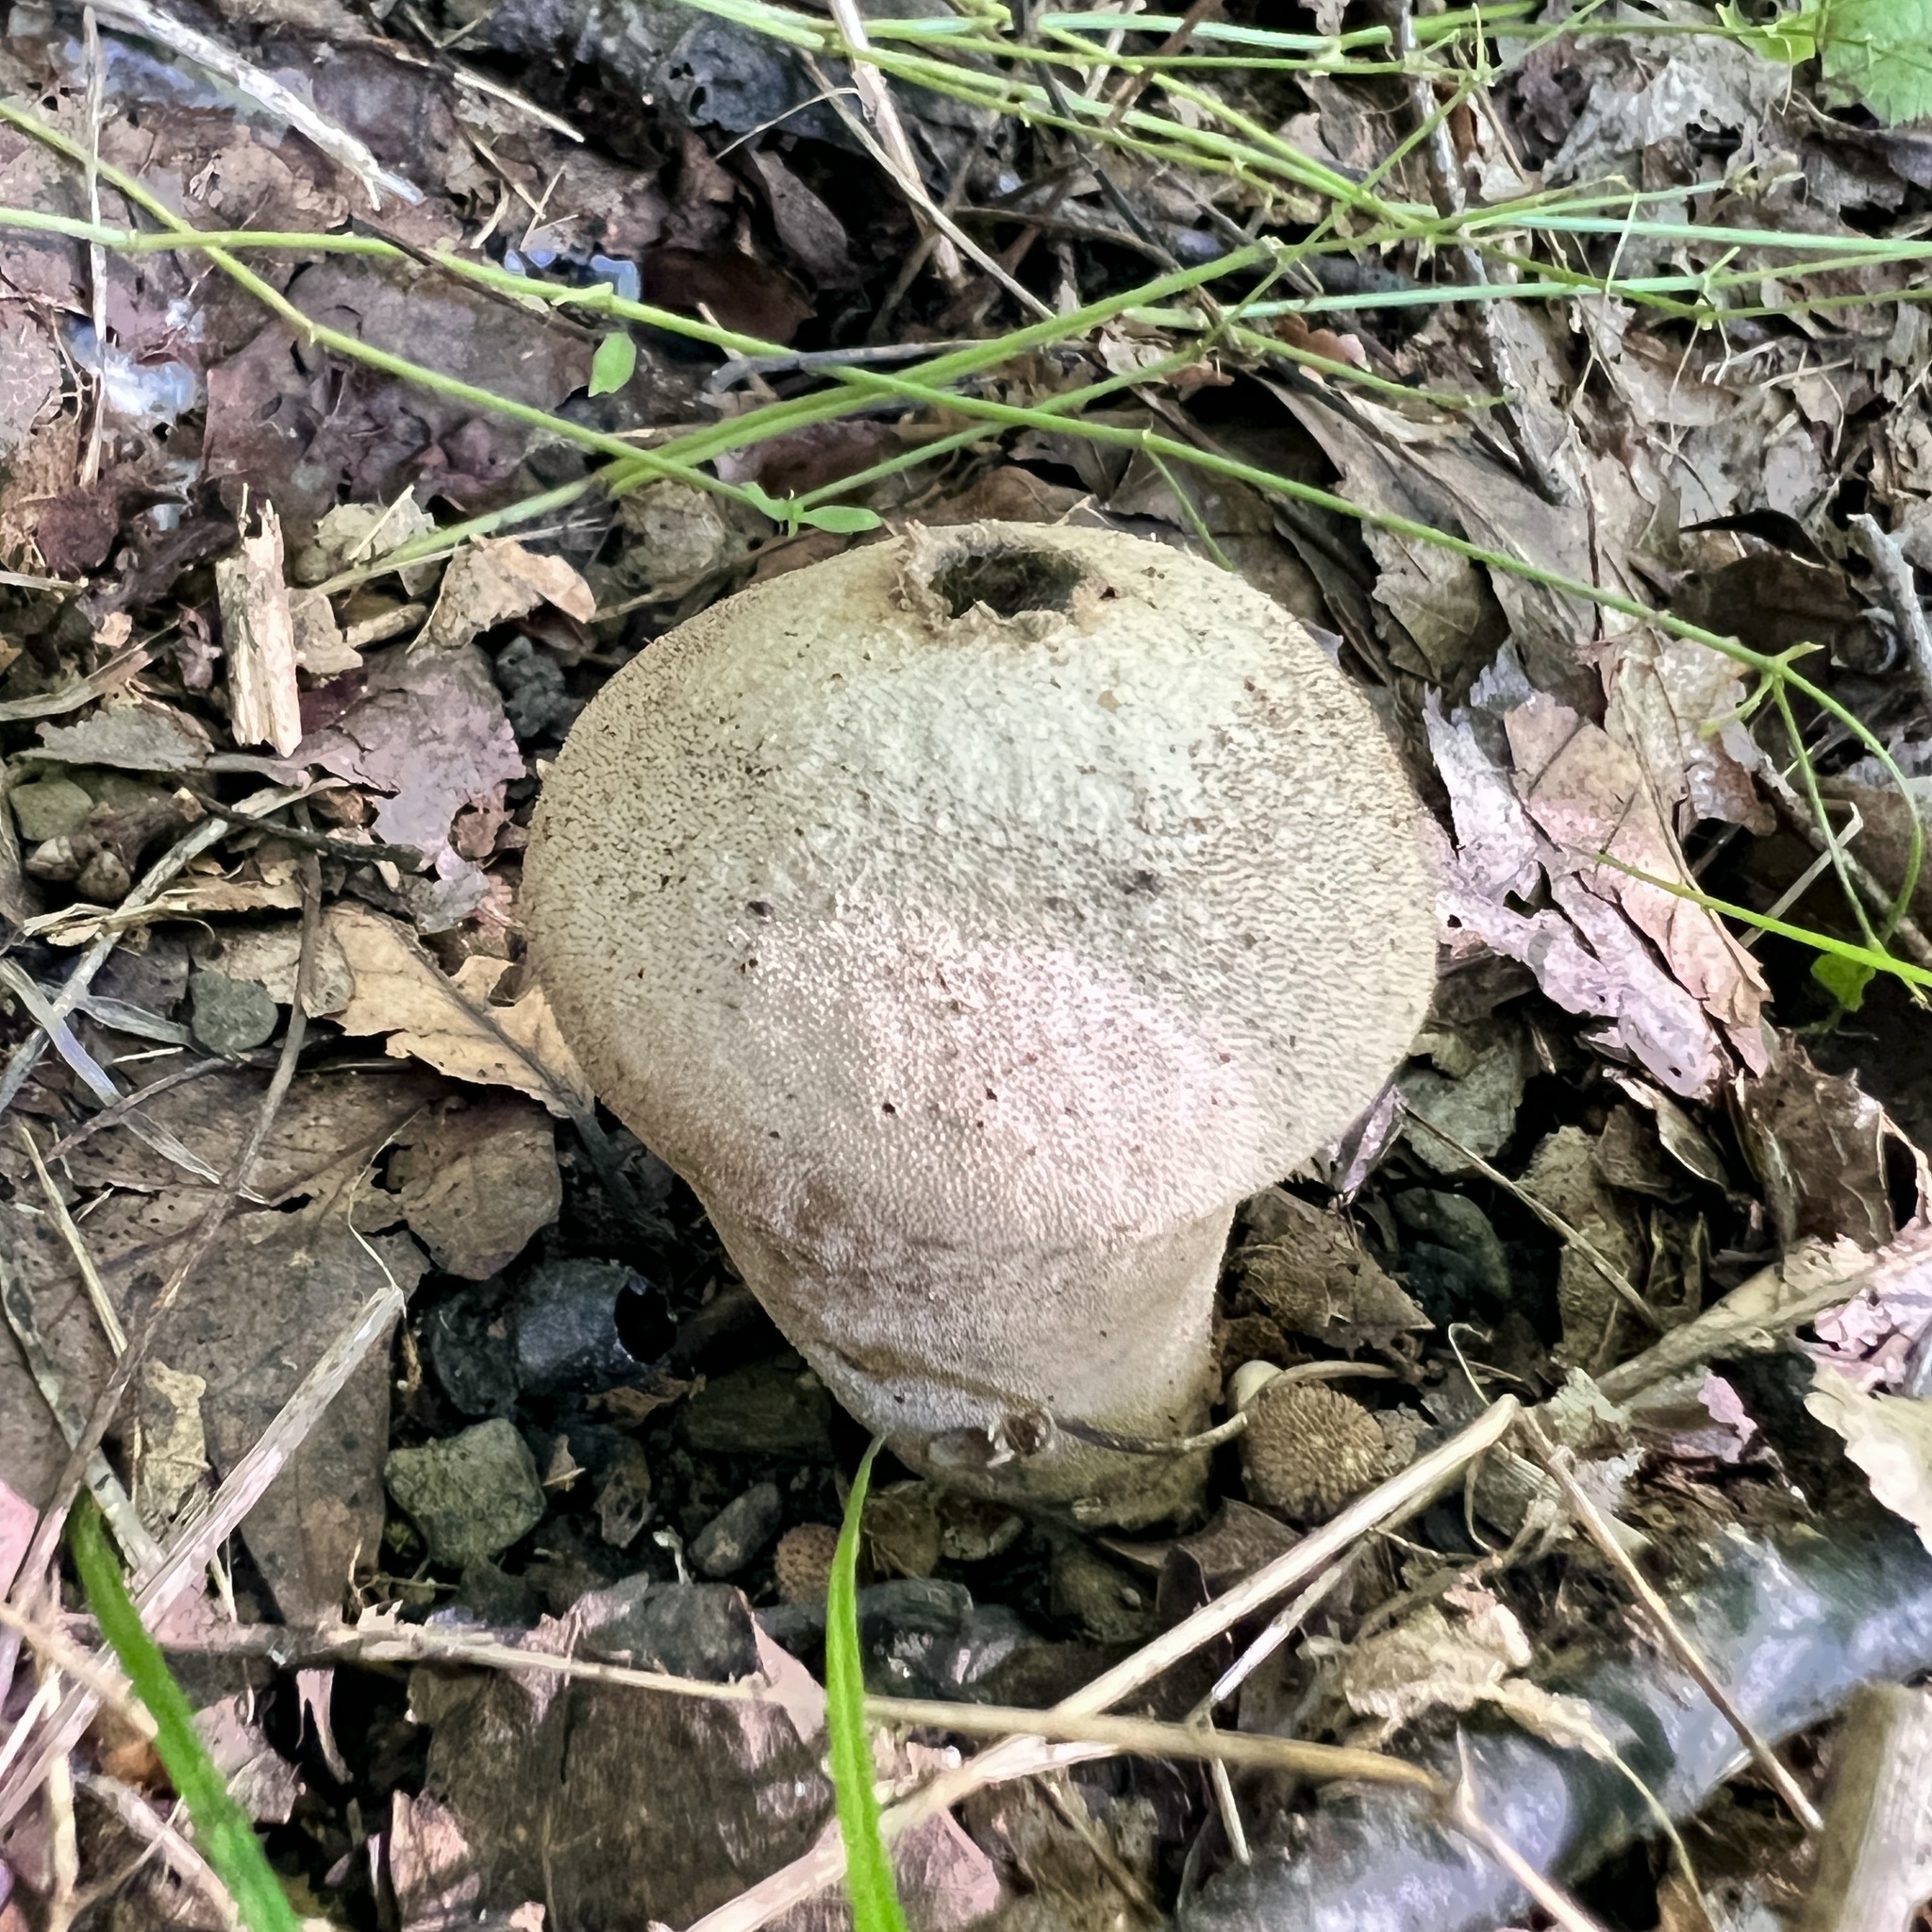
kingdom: Fungi
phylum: Basidiomycota
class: Agaricomycetes
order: Agaricales
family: Lycoperdaceae
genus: Lycoperdon
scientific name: Lycoperdon perlatum
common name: Common puffball
